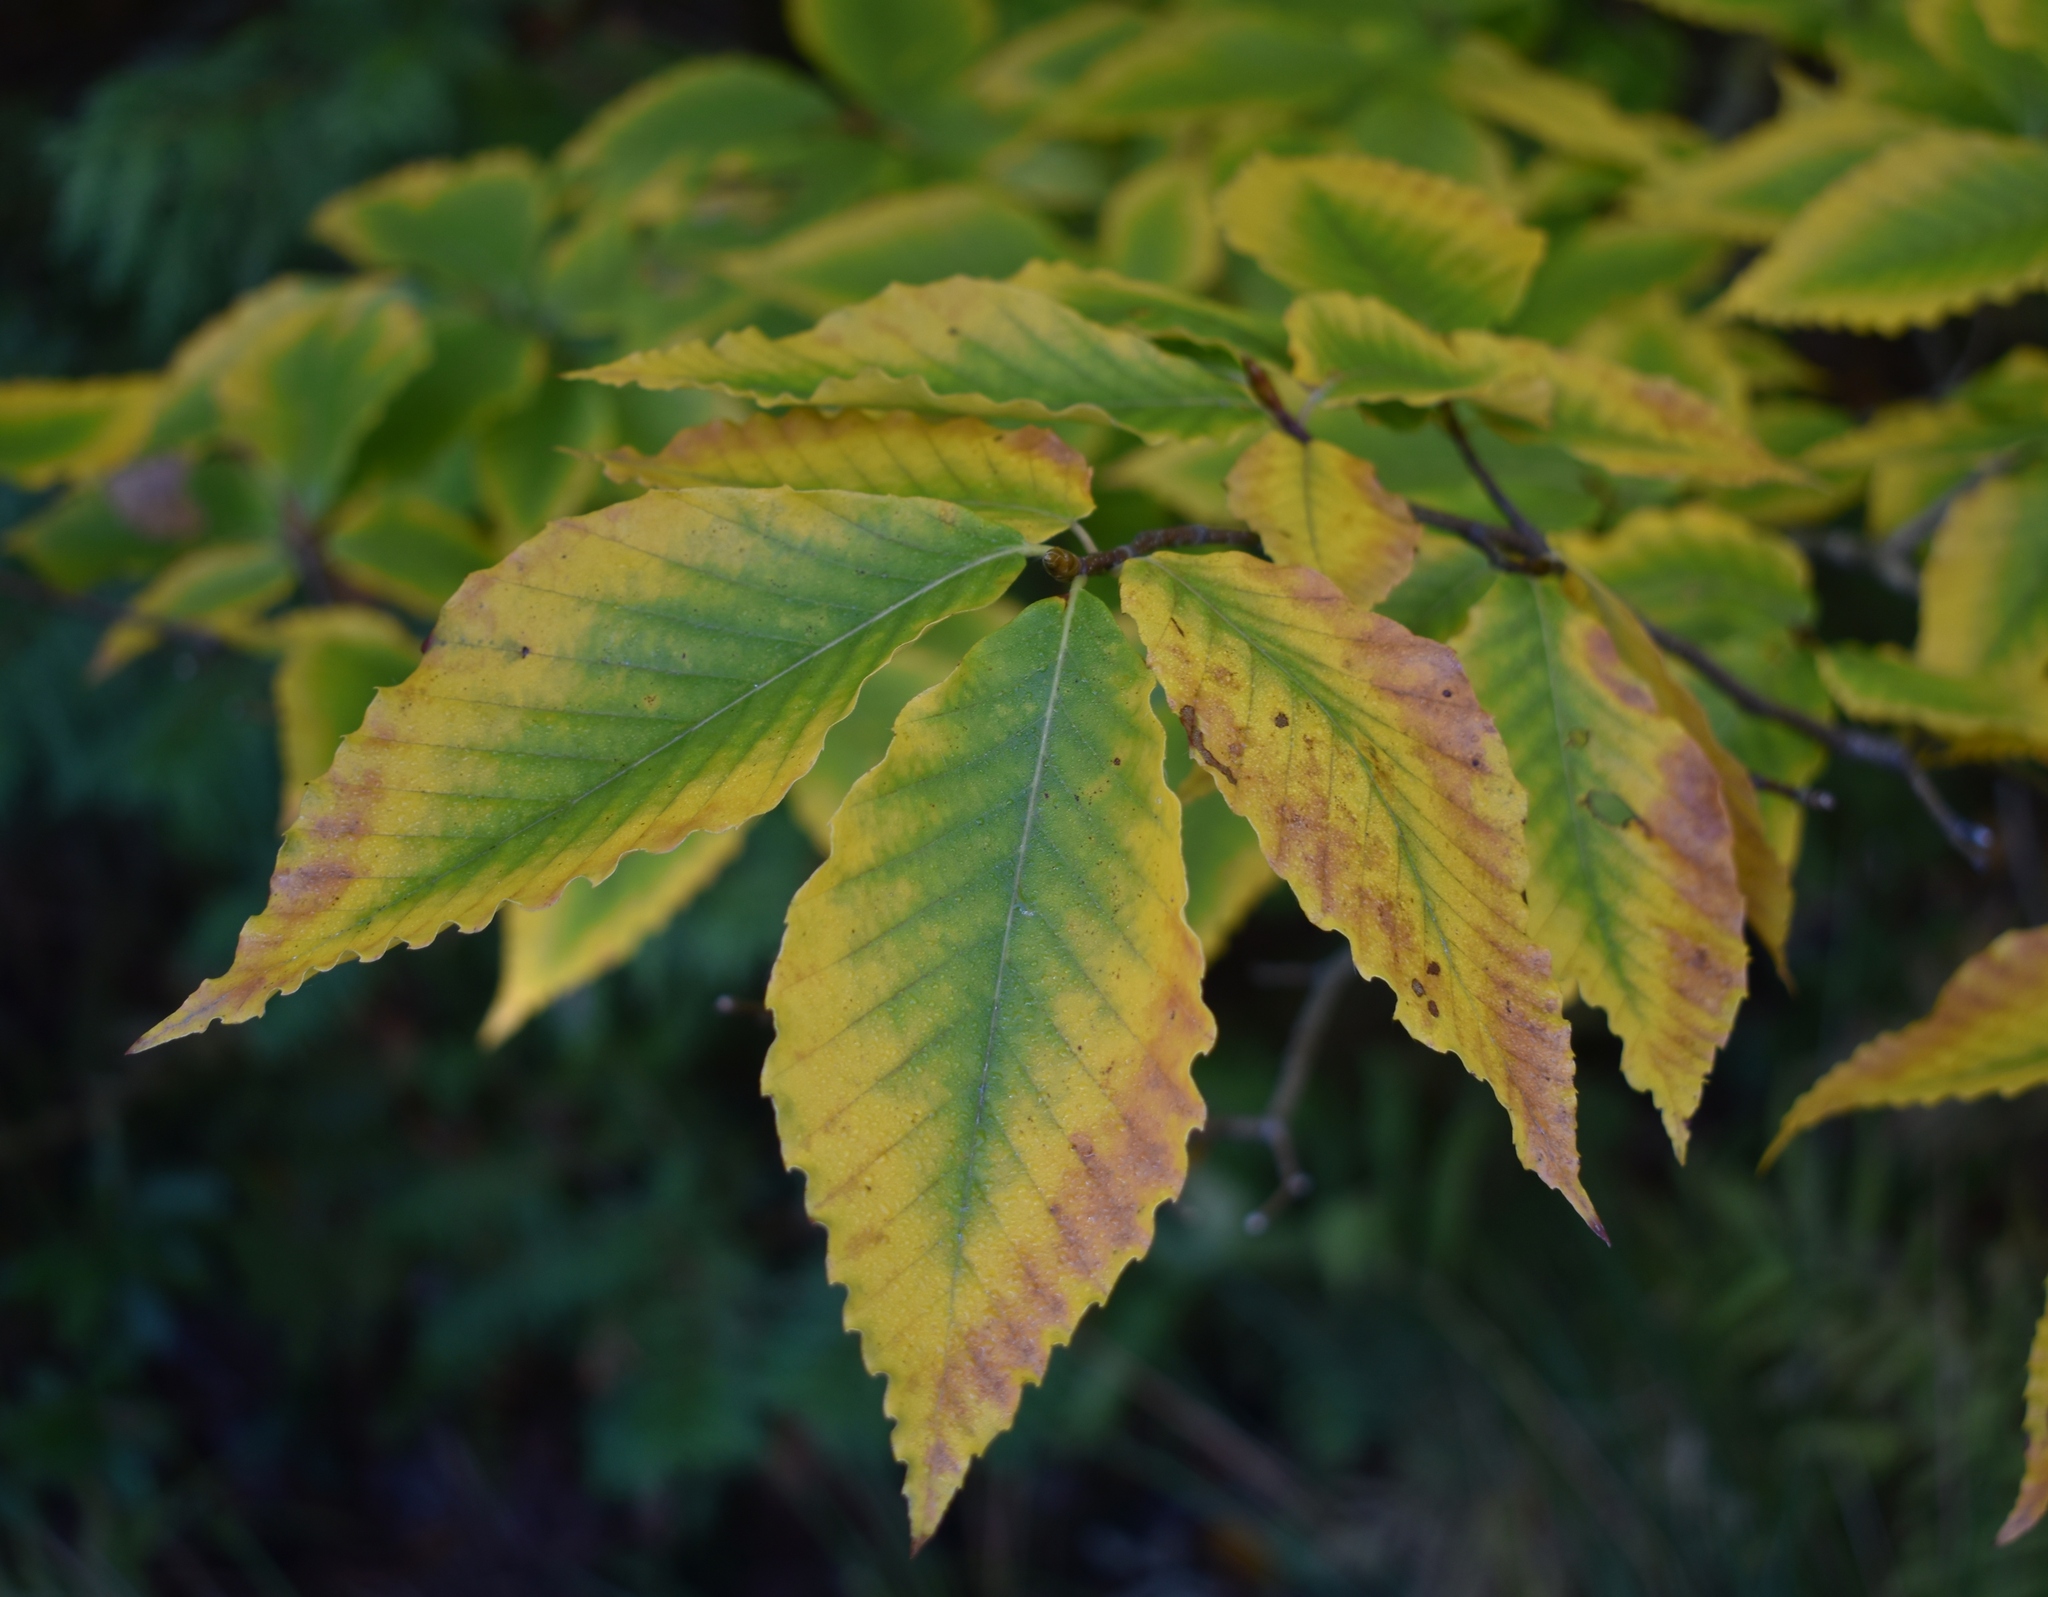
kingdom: Plantae
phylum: Tracheophyta
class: Magnoliopsida
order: Fagales
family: Fagaceae
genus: Fagus
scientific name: Fagus grandifolia
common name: American beech
